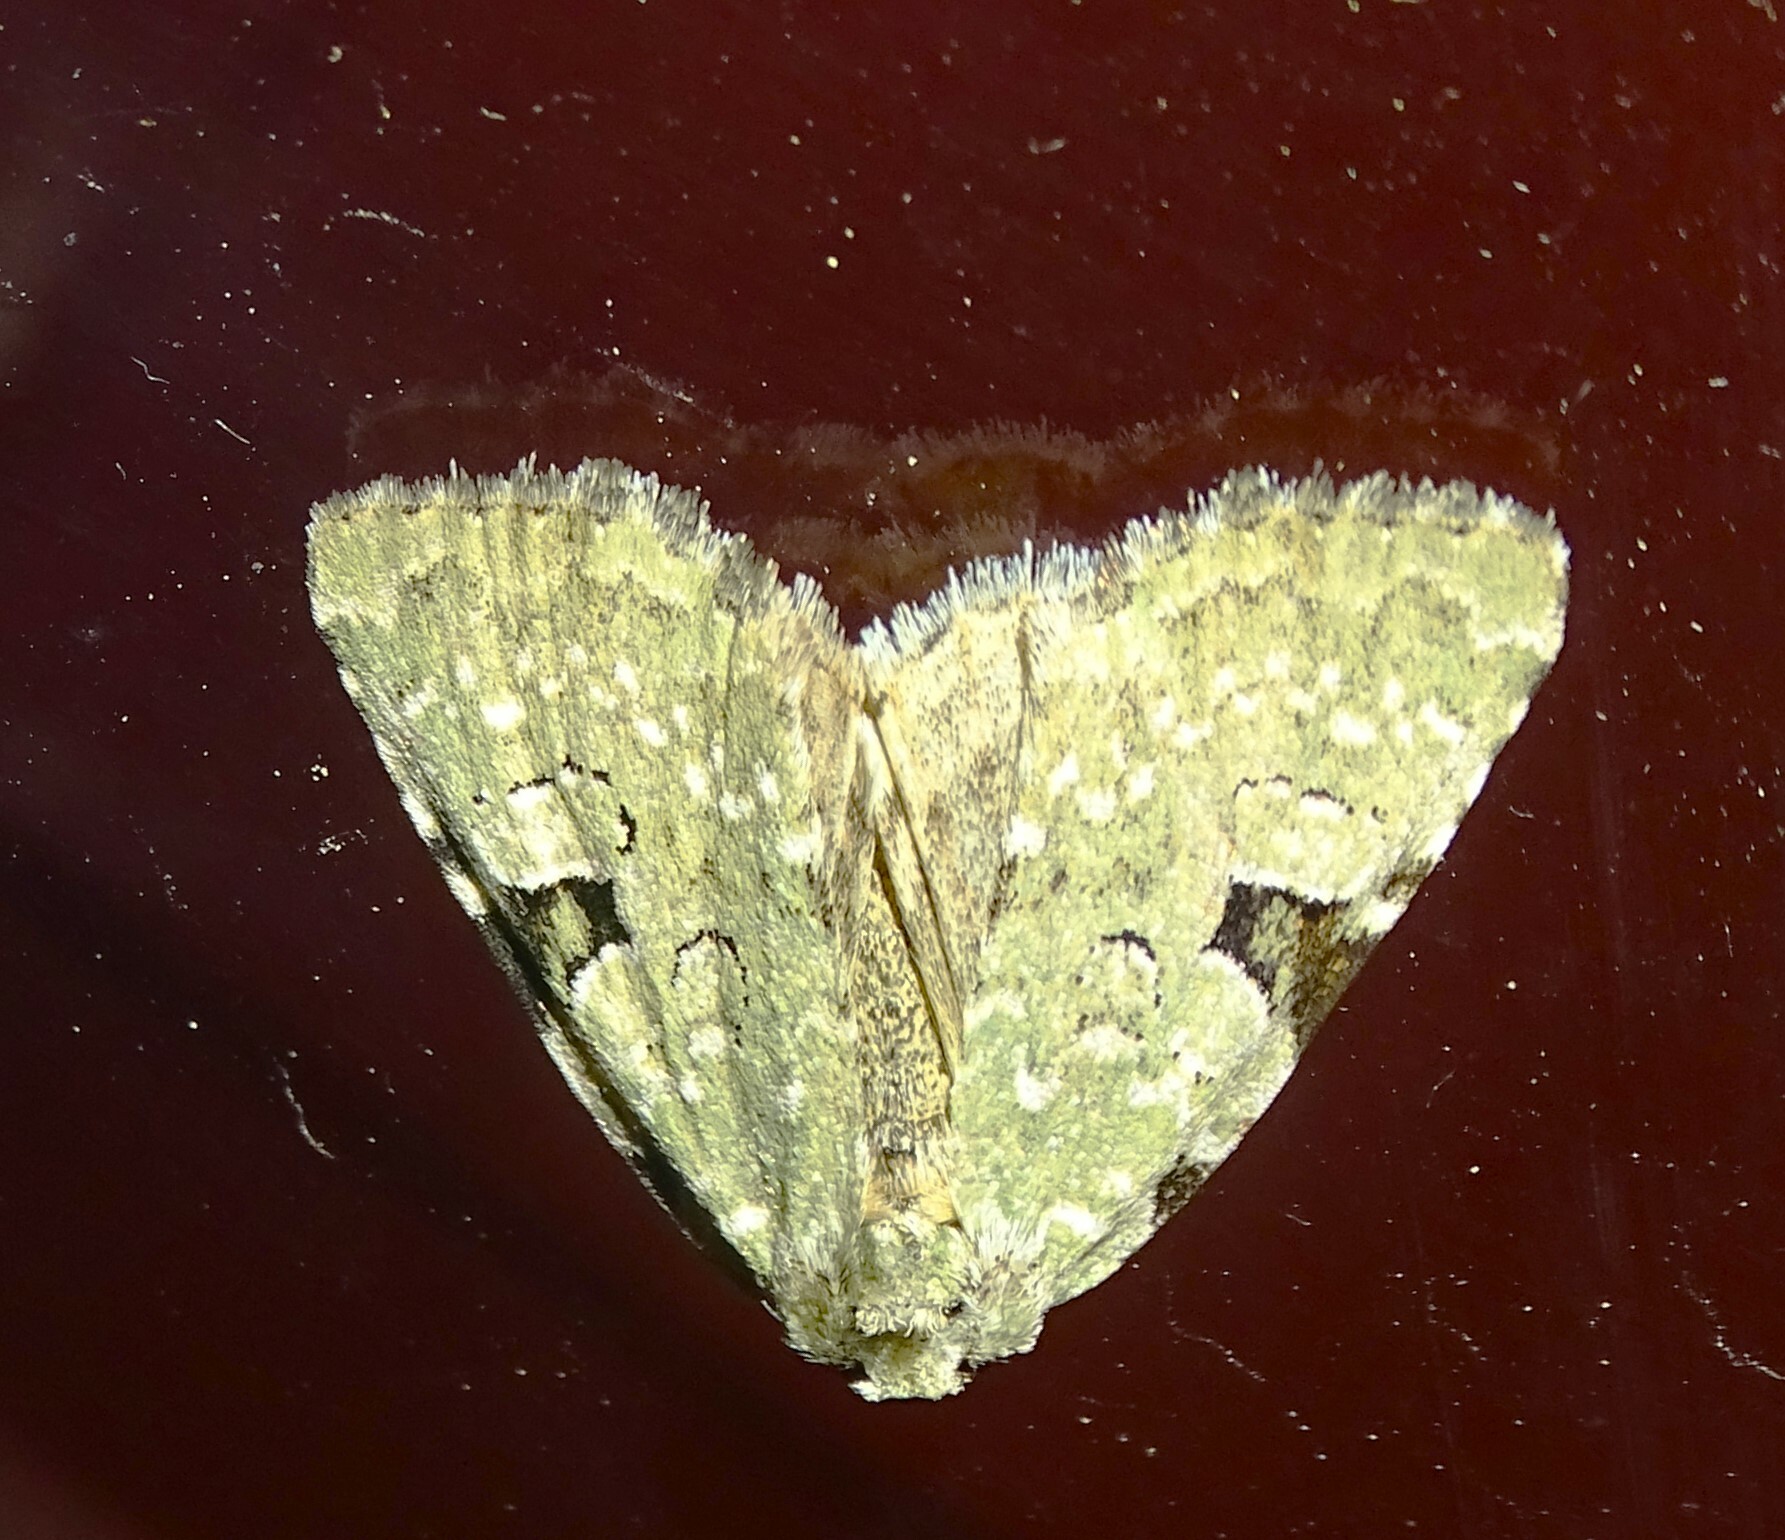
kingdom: Animalia
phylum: Arthropoda
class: Insecta
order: Lepidoptera
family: Noctuidae
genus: Leuconycta
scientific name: Leuconycta diphteroides
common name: Green leuconycta moth
